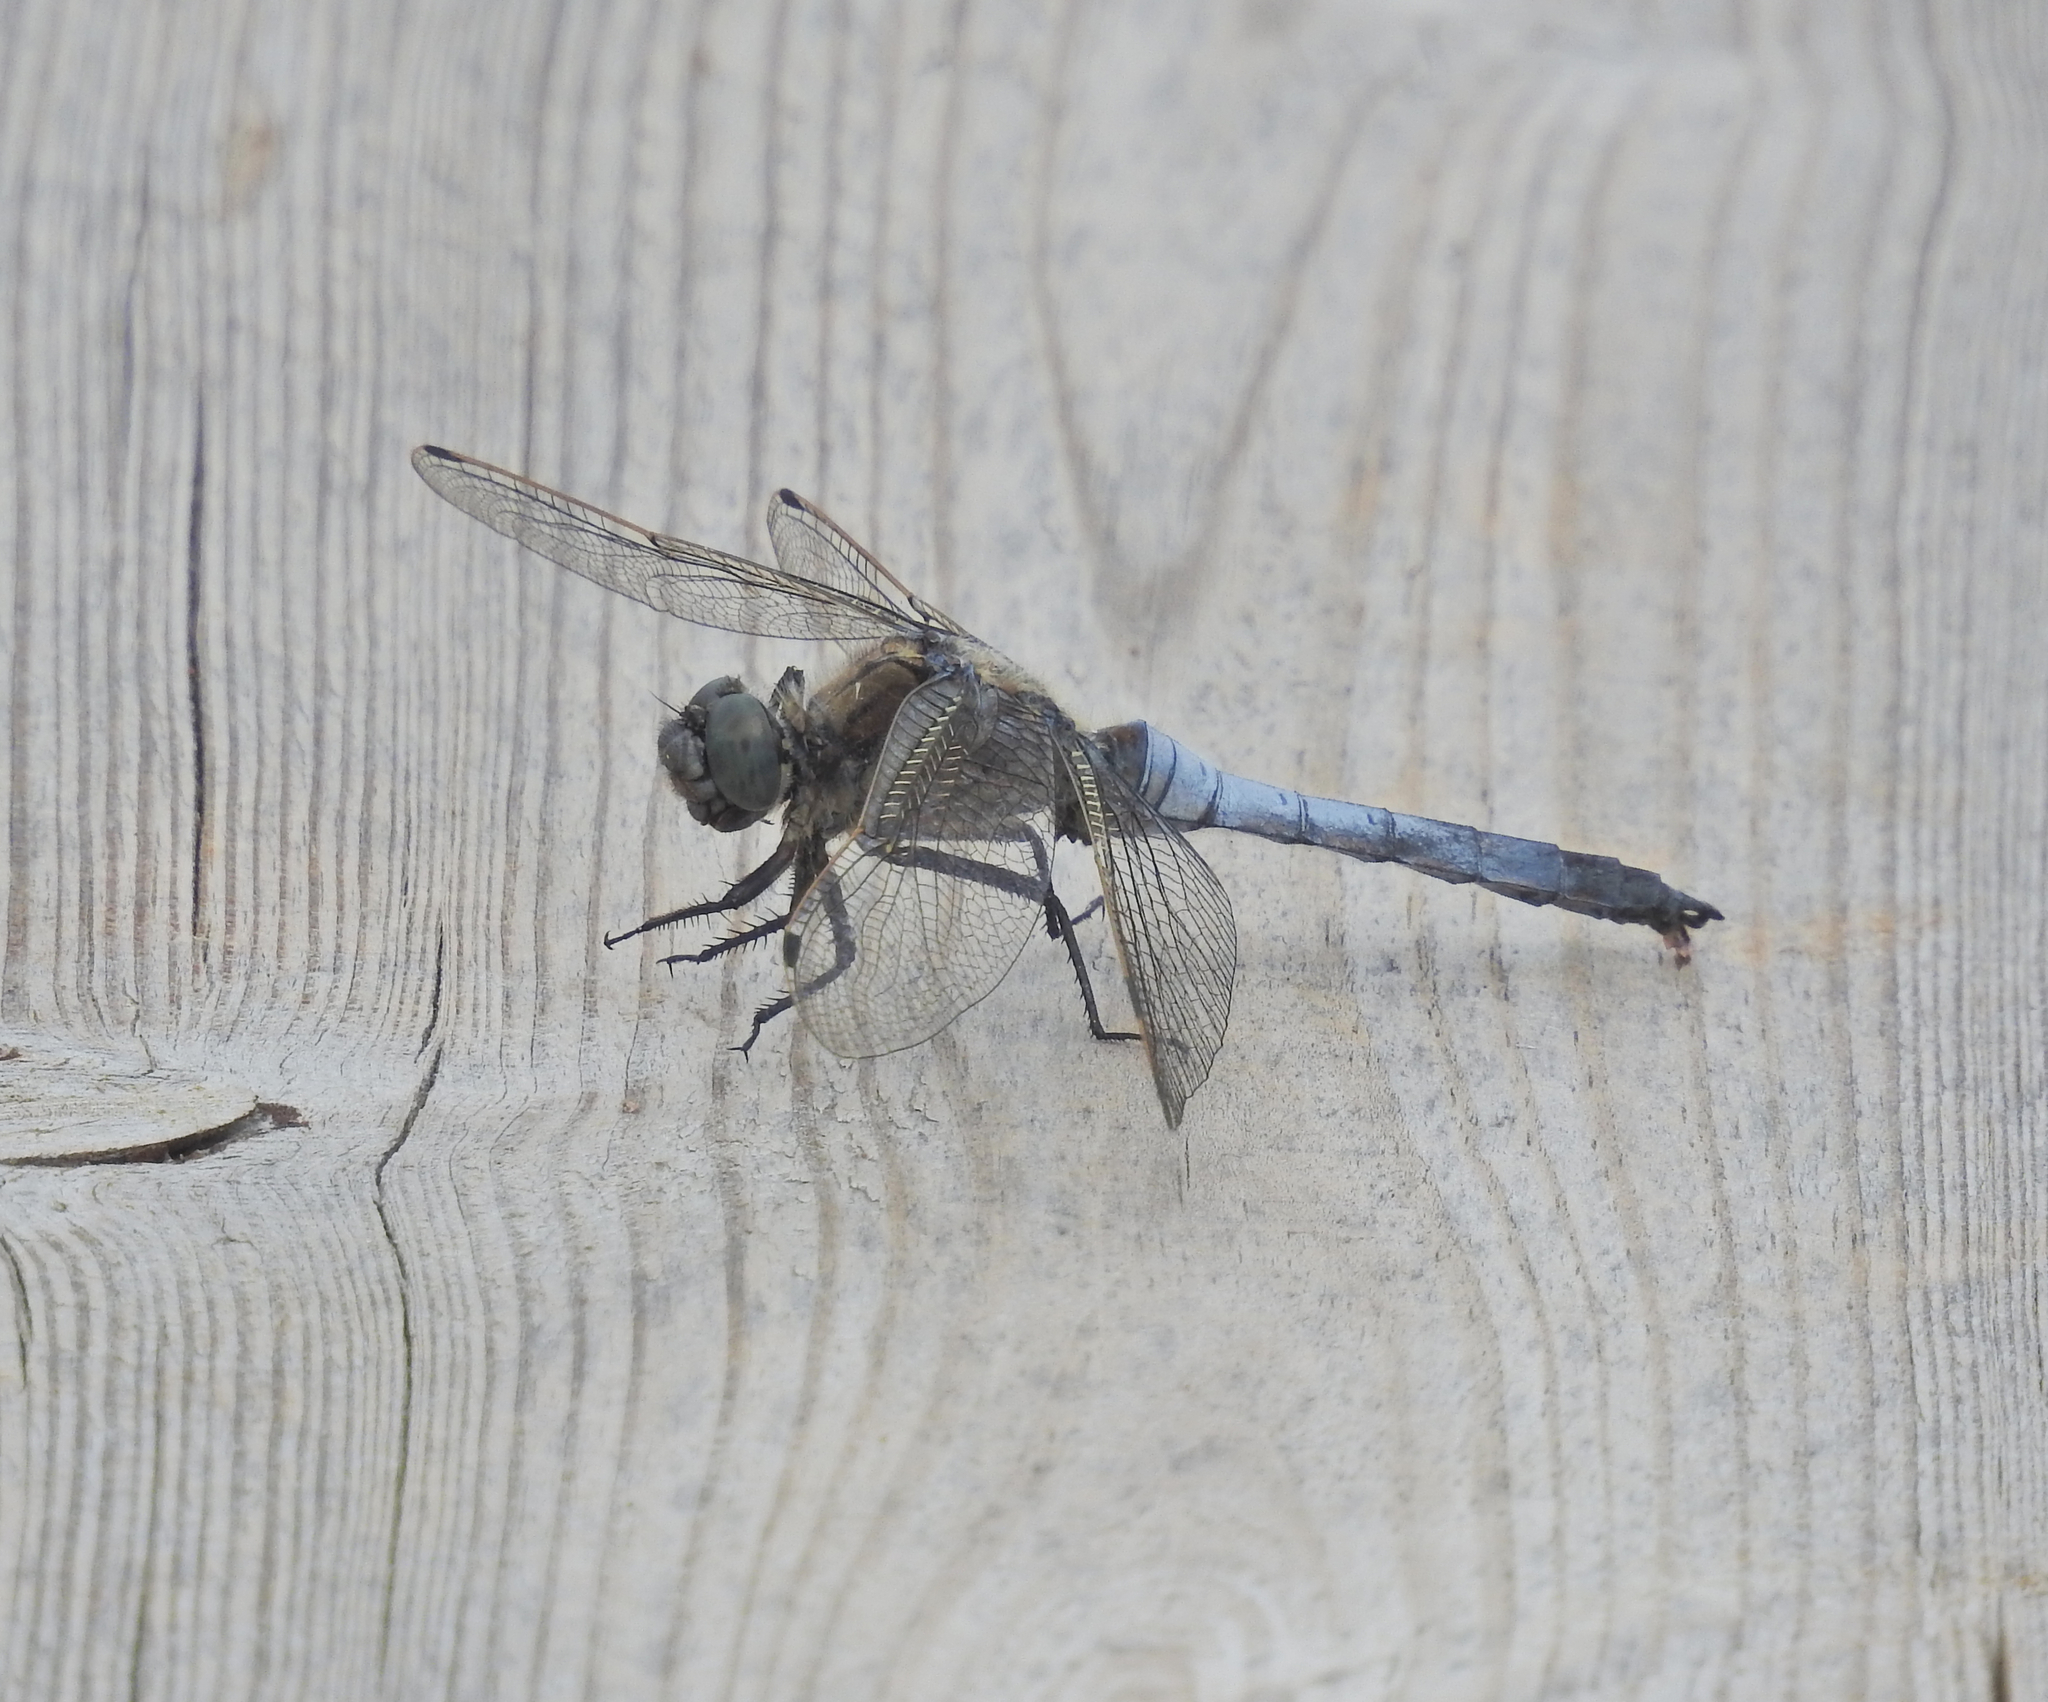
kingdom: Animalia
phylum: Arthropoda
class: Insecta
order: Odonata
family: Libellulidae
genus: Orthetrum
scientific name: Orthetrum cancellatum
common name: Black-tailed skimmer
